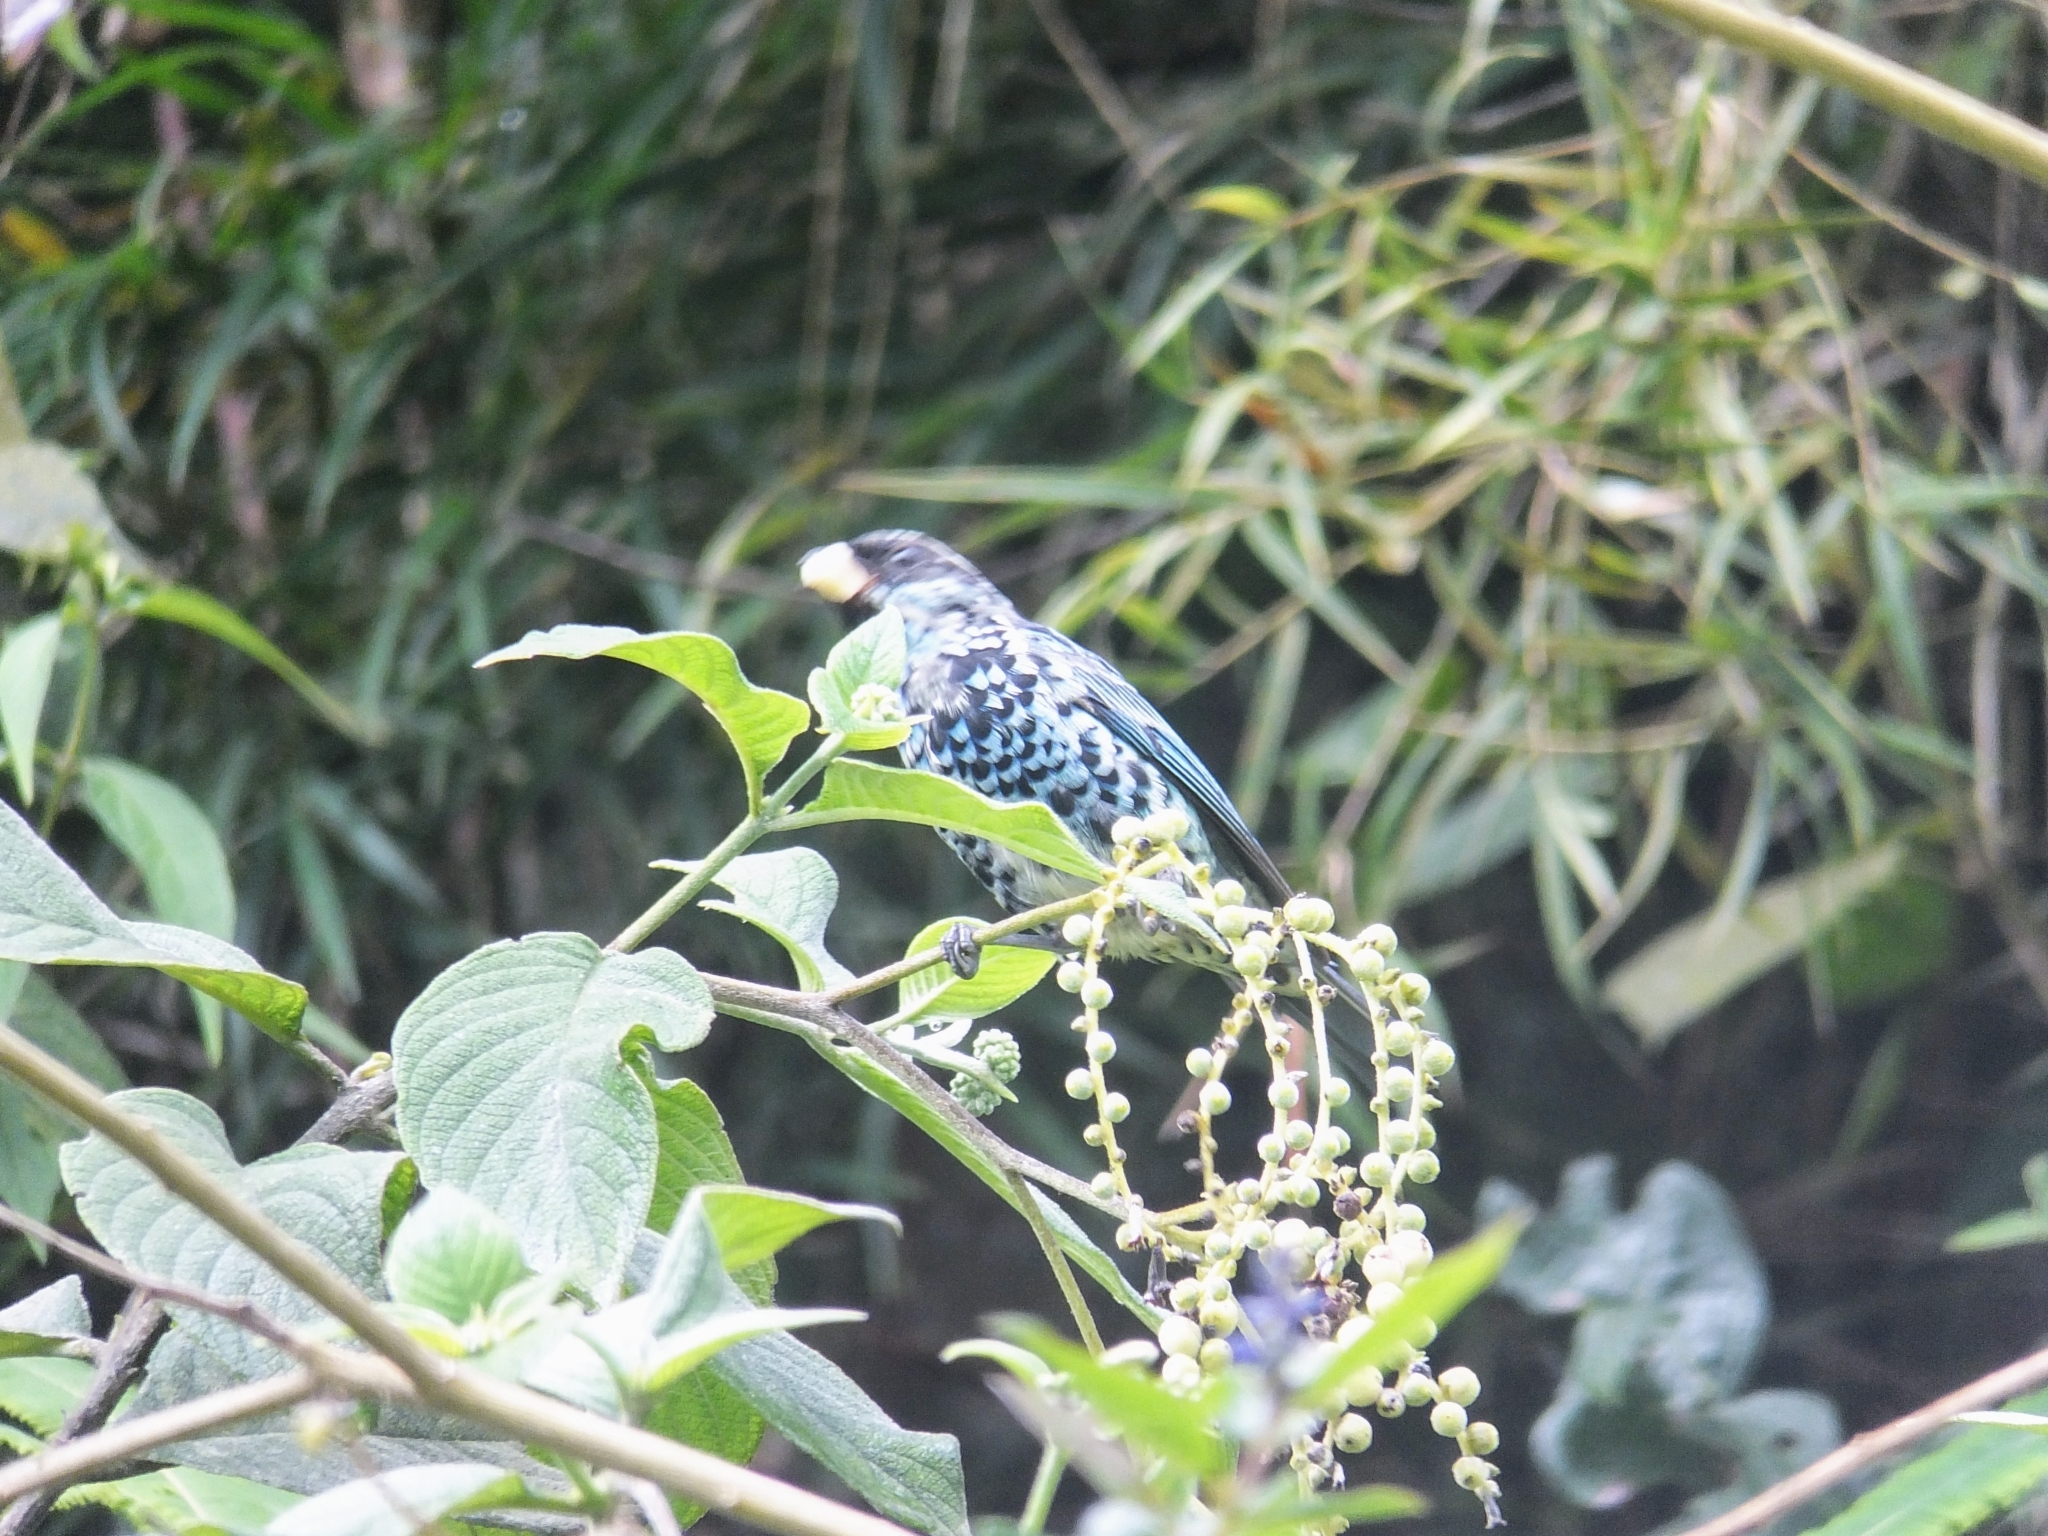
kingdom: Animalia
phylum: Chordata
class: Aves
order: Passeriformes
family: Thraupidae
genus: Tangara
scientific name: Tangara nigroviridis
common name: Beryl-spangled tanager
